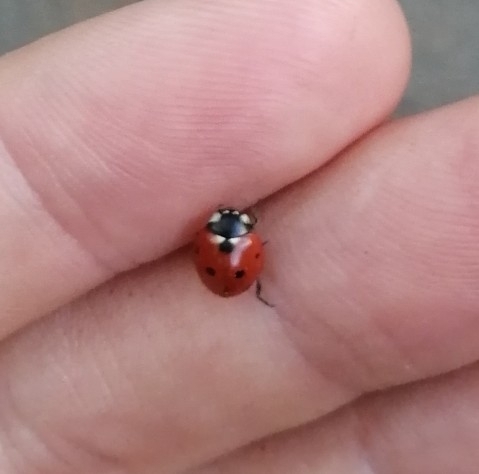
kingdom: Animalia
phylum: Arthropoda
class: Insecta
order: Coleoptera
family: Coccinellidae
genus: Coccinella
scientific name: Coccinella septempunctata
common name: Sevenspotted lady beetle
